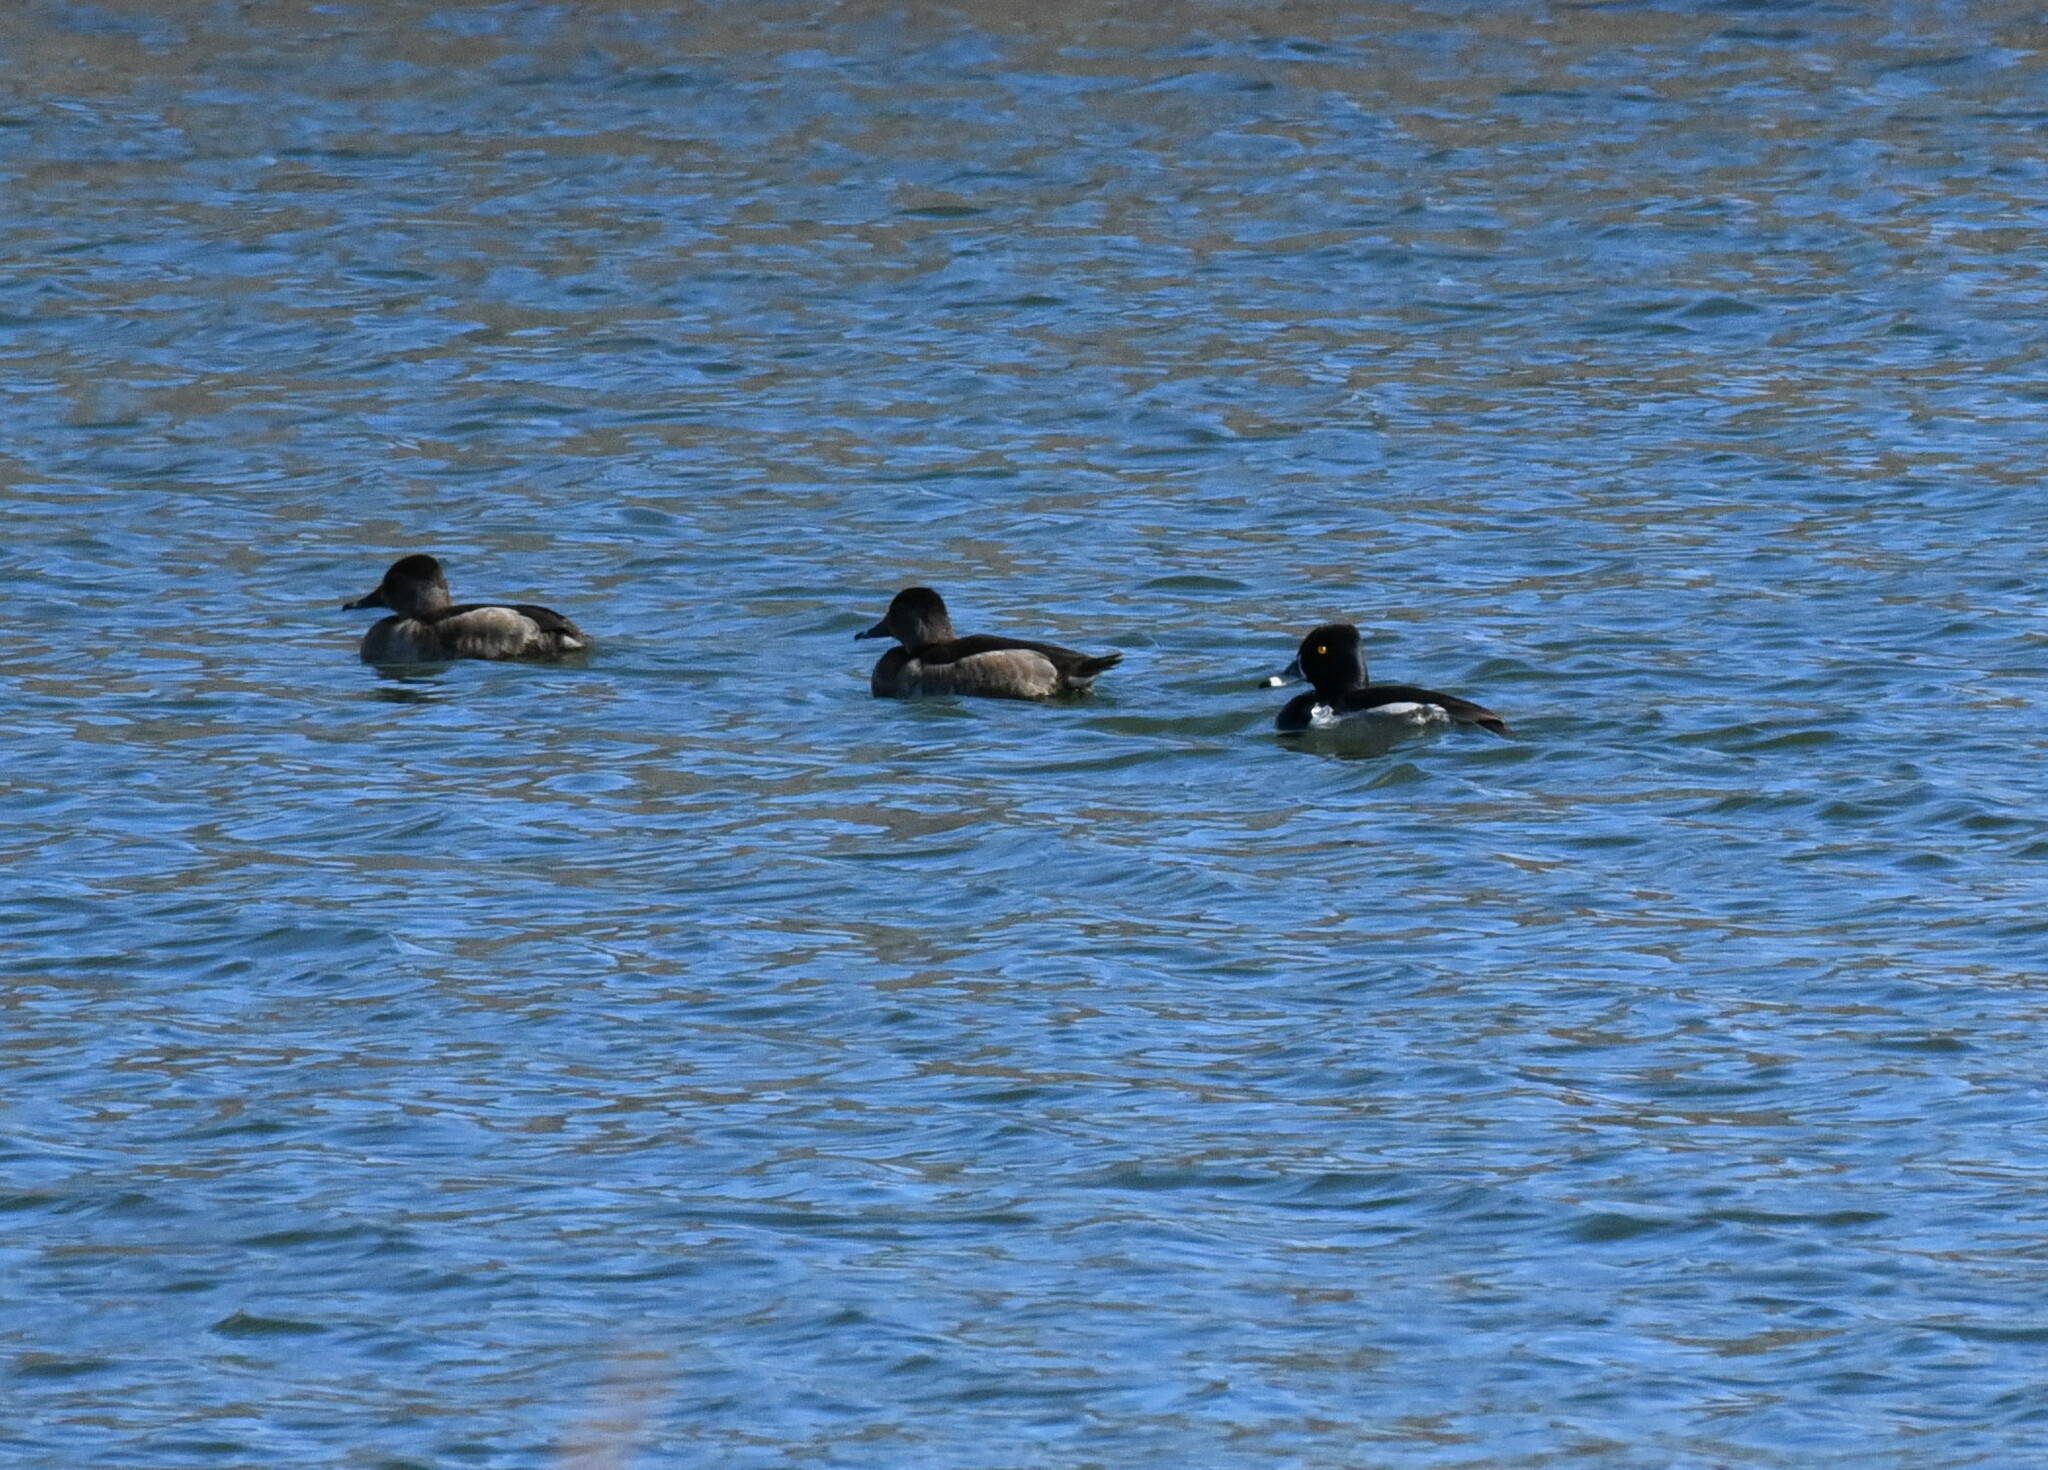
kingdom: Animalia
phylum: Chordata
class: Aves
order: Anseriformes
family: Anatidae
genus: Aythya
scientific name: Aythya collaris
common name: Ring-necked duck
